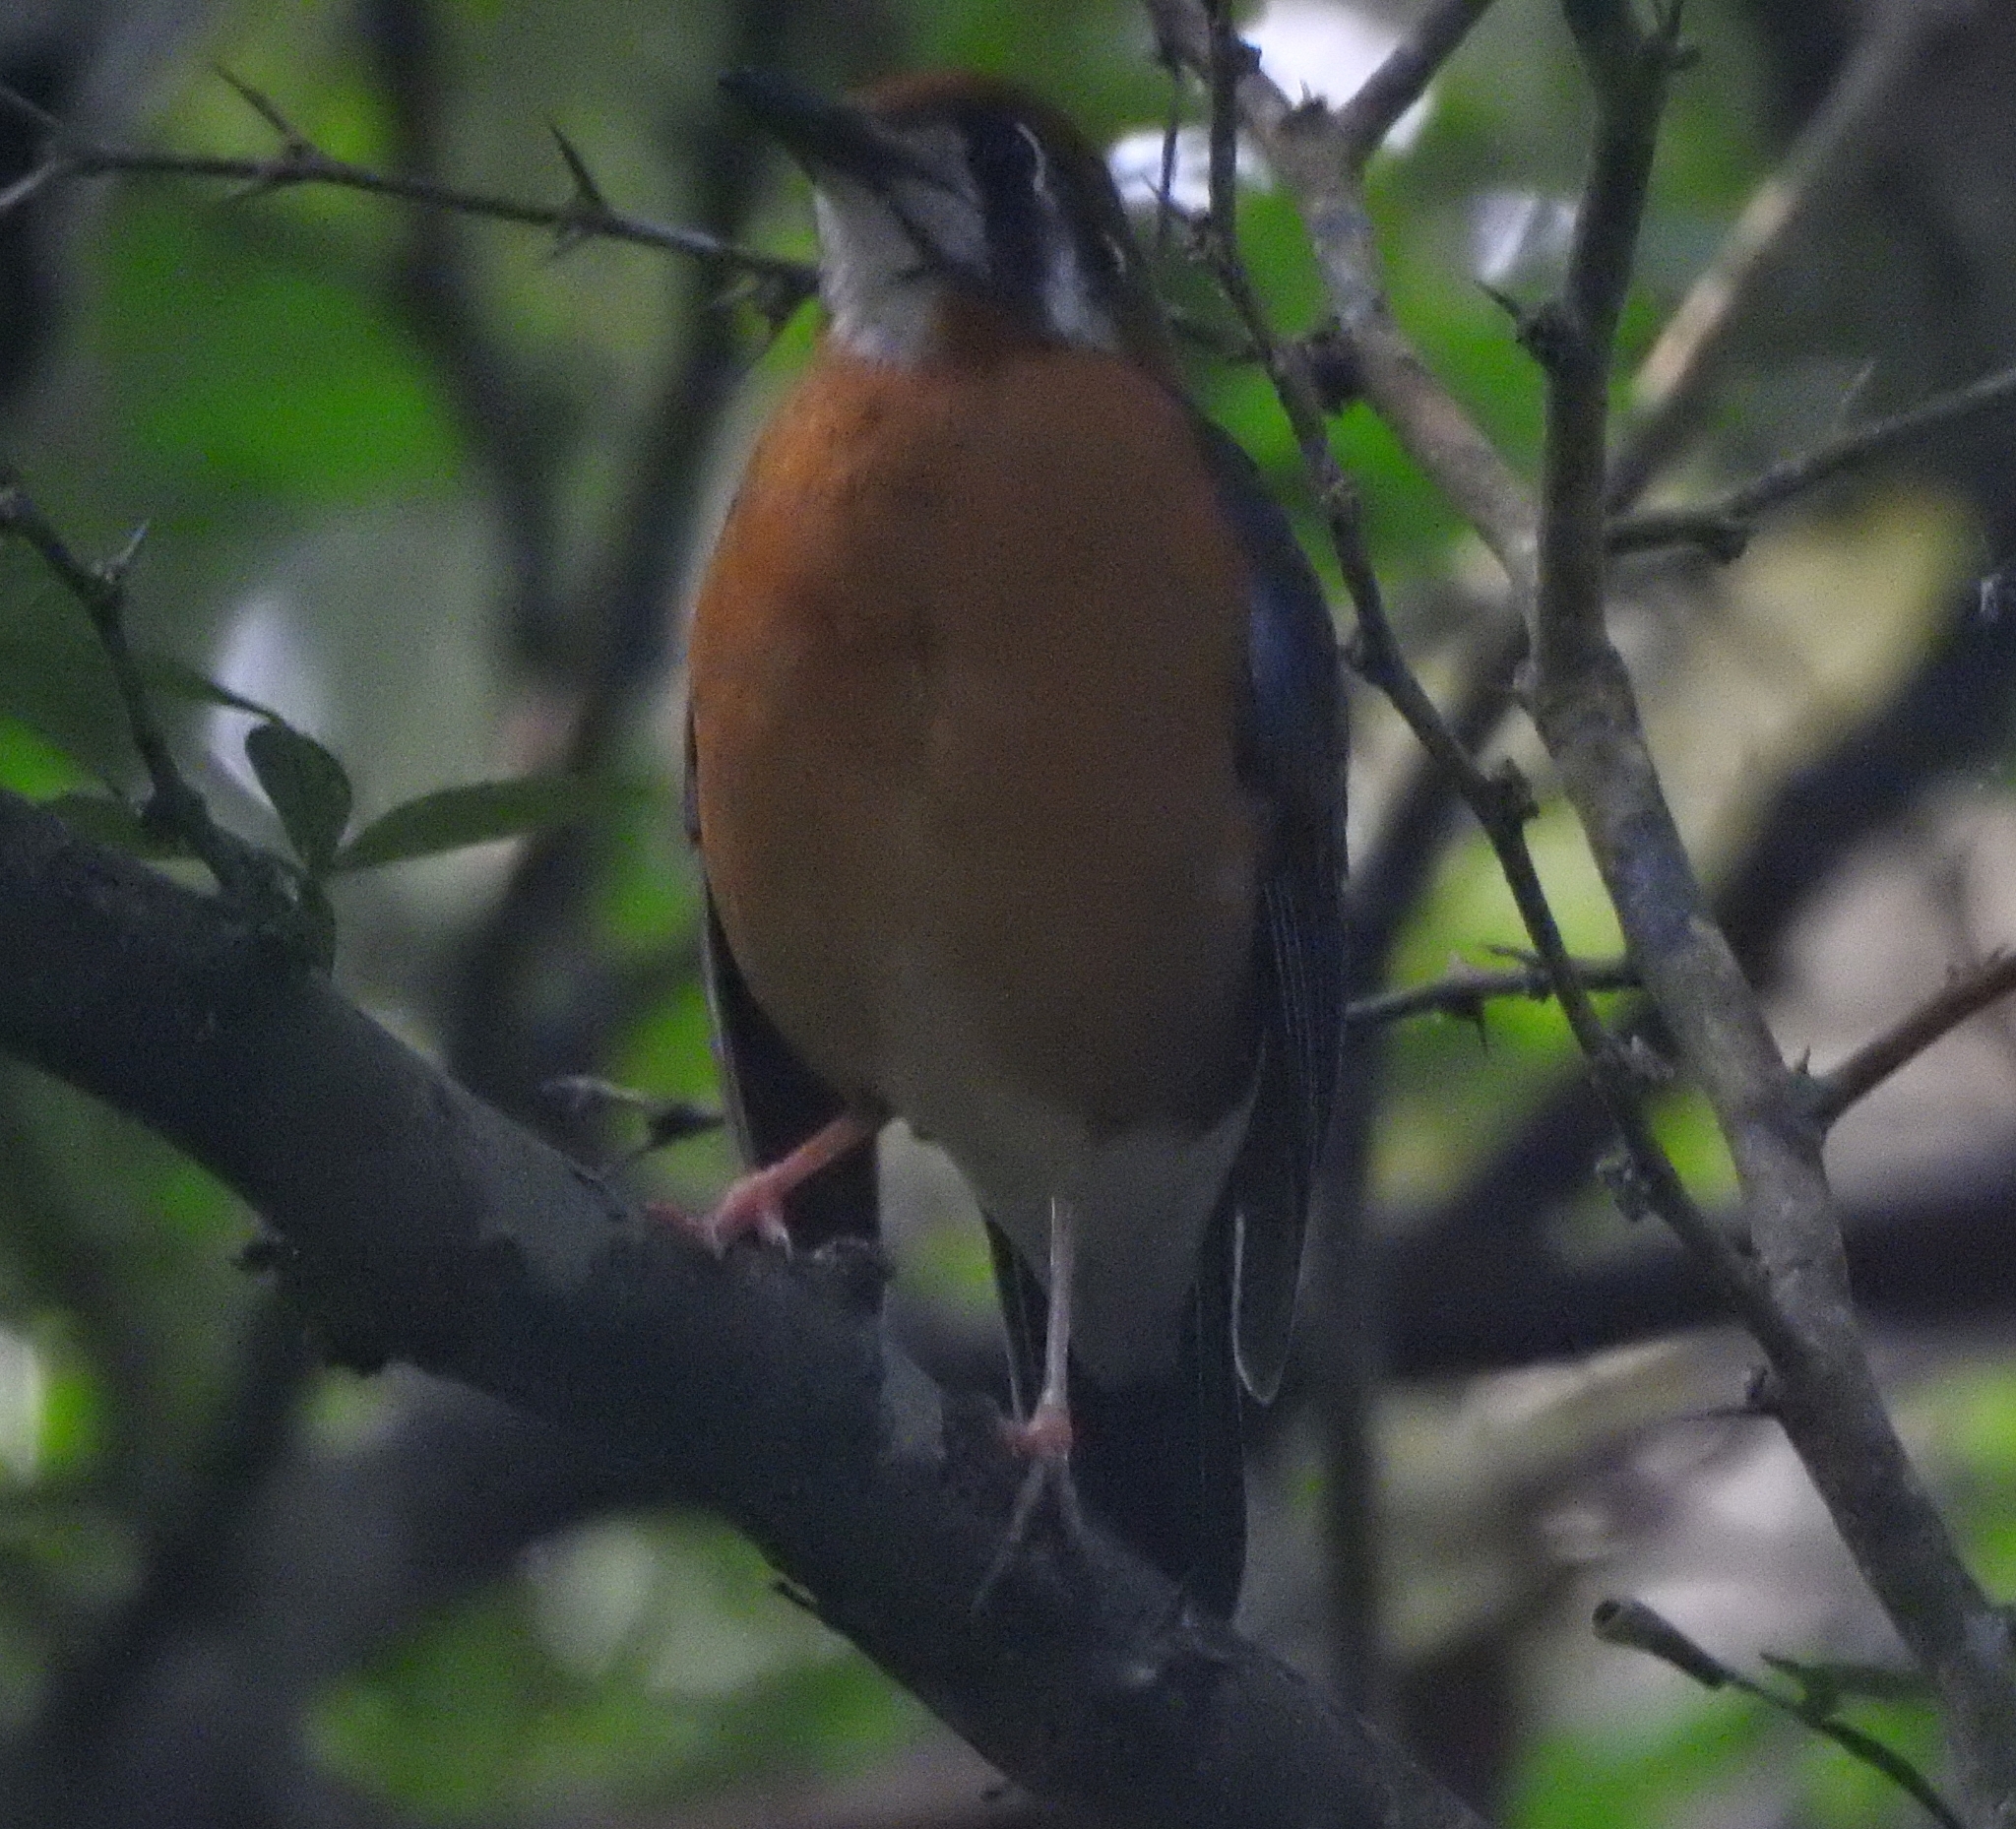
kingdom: Animalia
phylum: Chordata
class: Aves
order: Passeriformes
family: Turdidae
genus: Geokichla
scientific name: Geokichla citrina
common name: Orange-headed thrush
